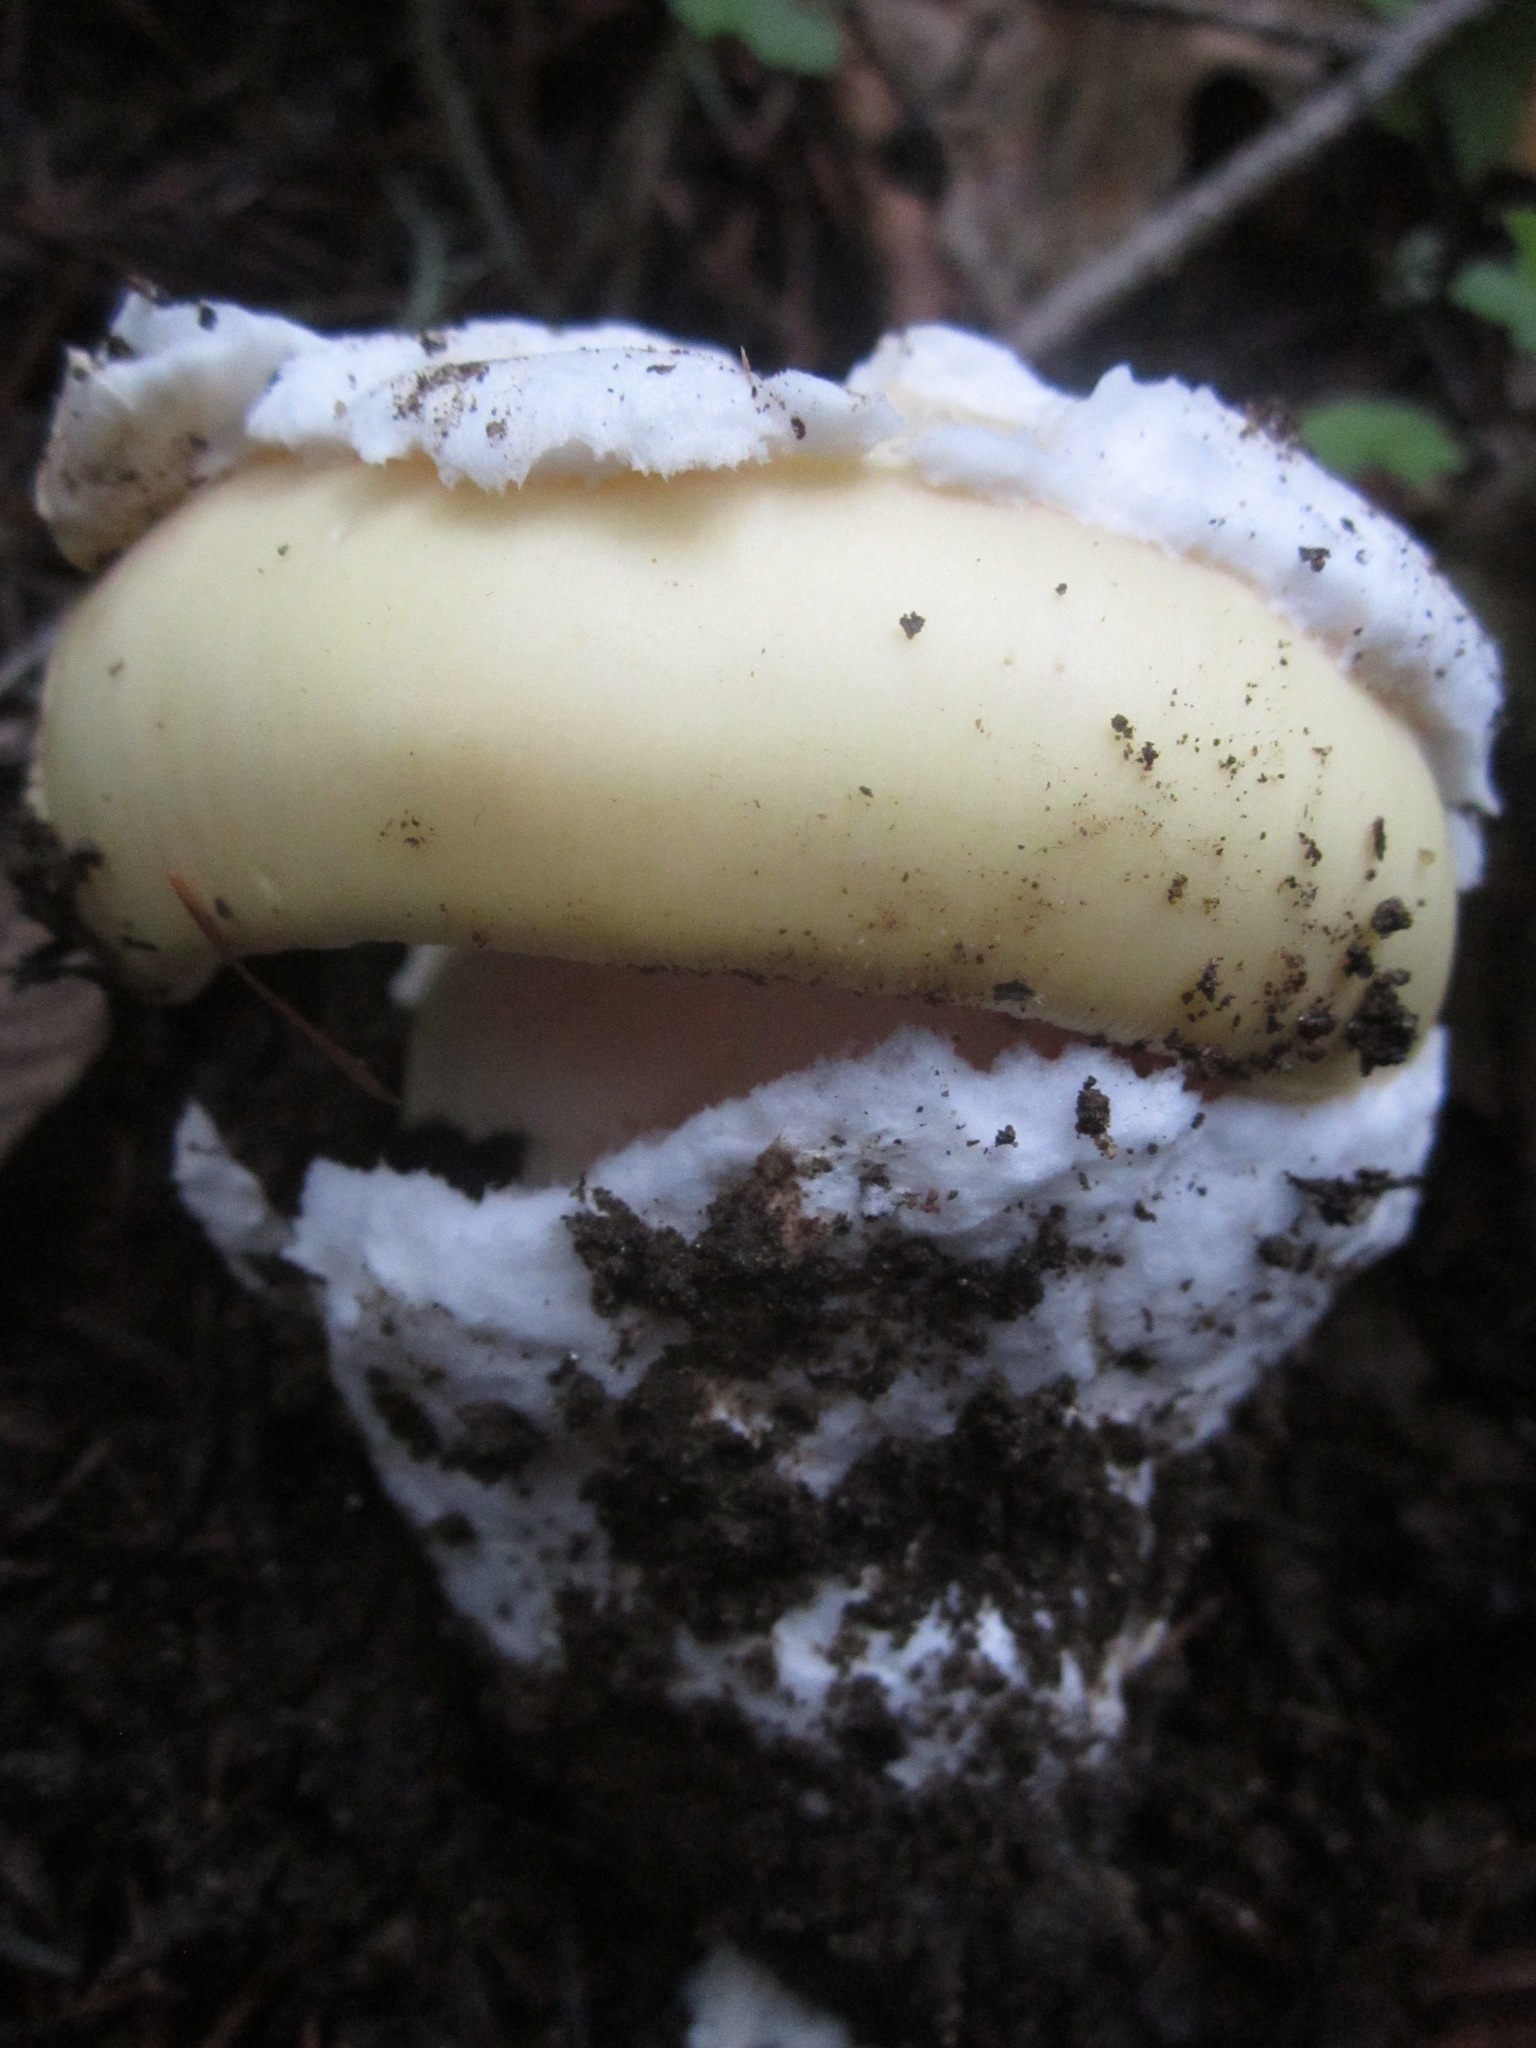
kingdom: Fungi
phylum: Basidiomycota
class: Agaricomycetes
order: Agaricales
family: Amanitaceae
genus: Amanita
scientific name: Amanita vernicoccora
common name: Spring coccora
